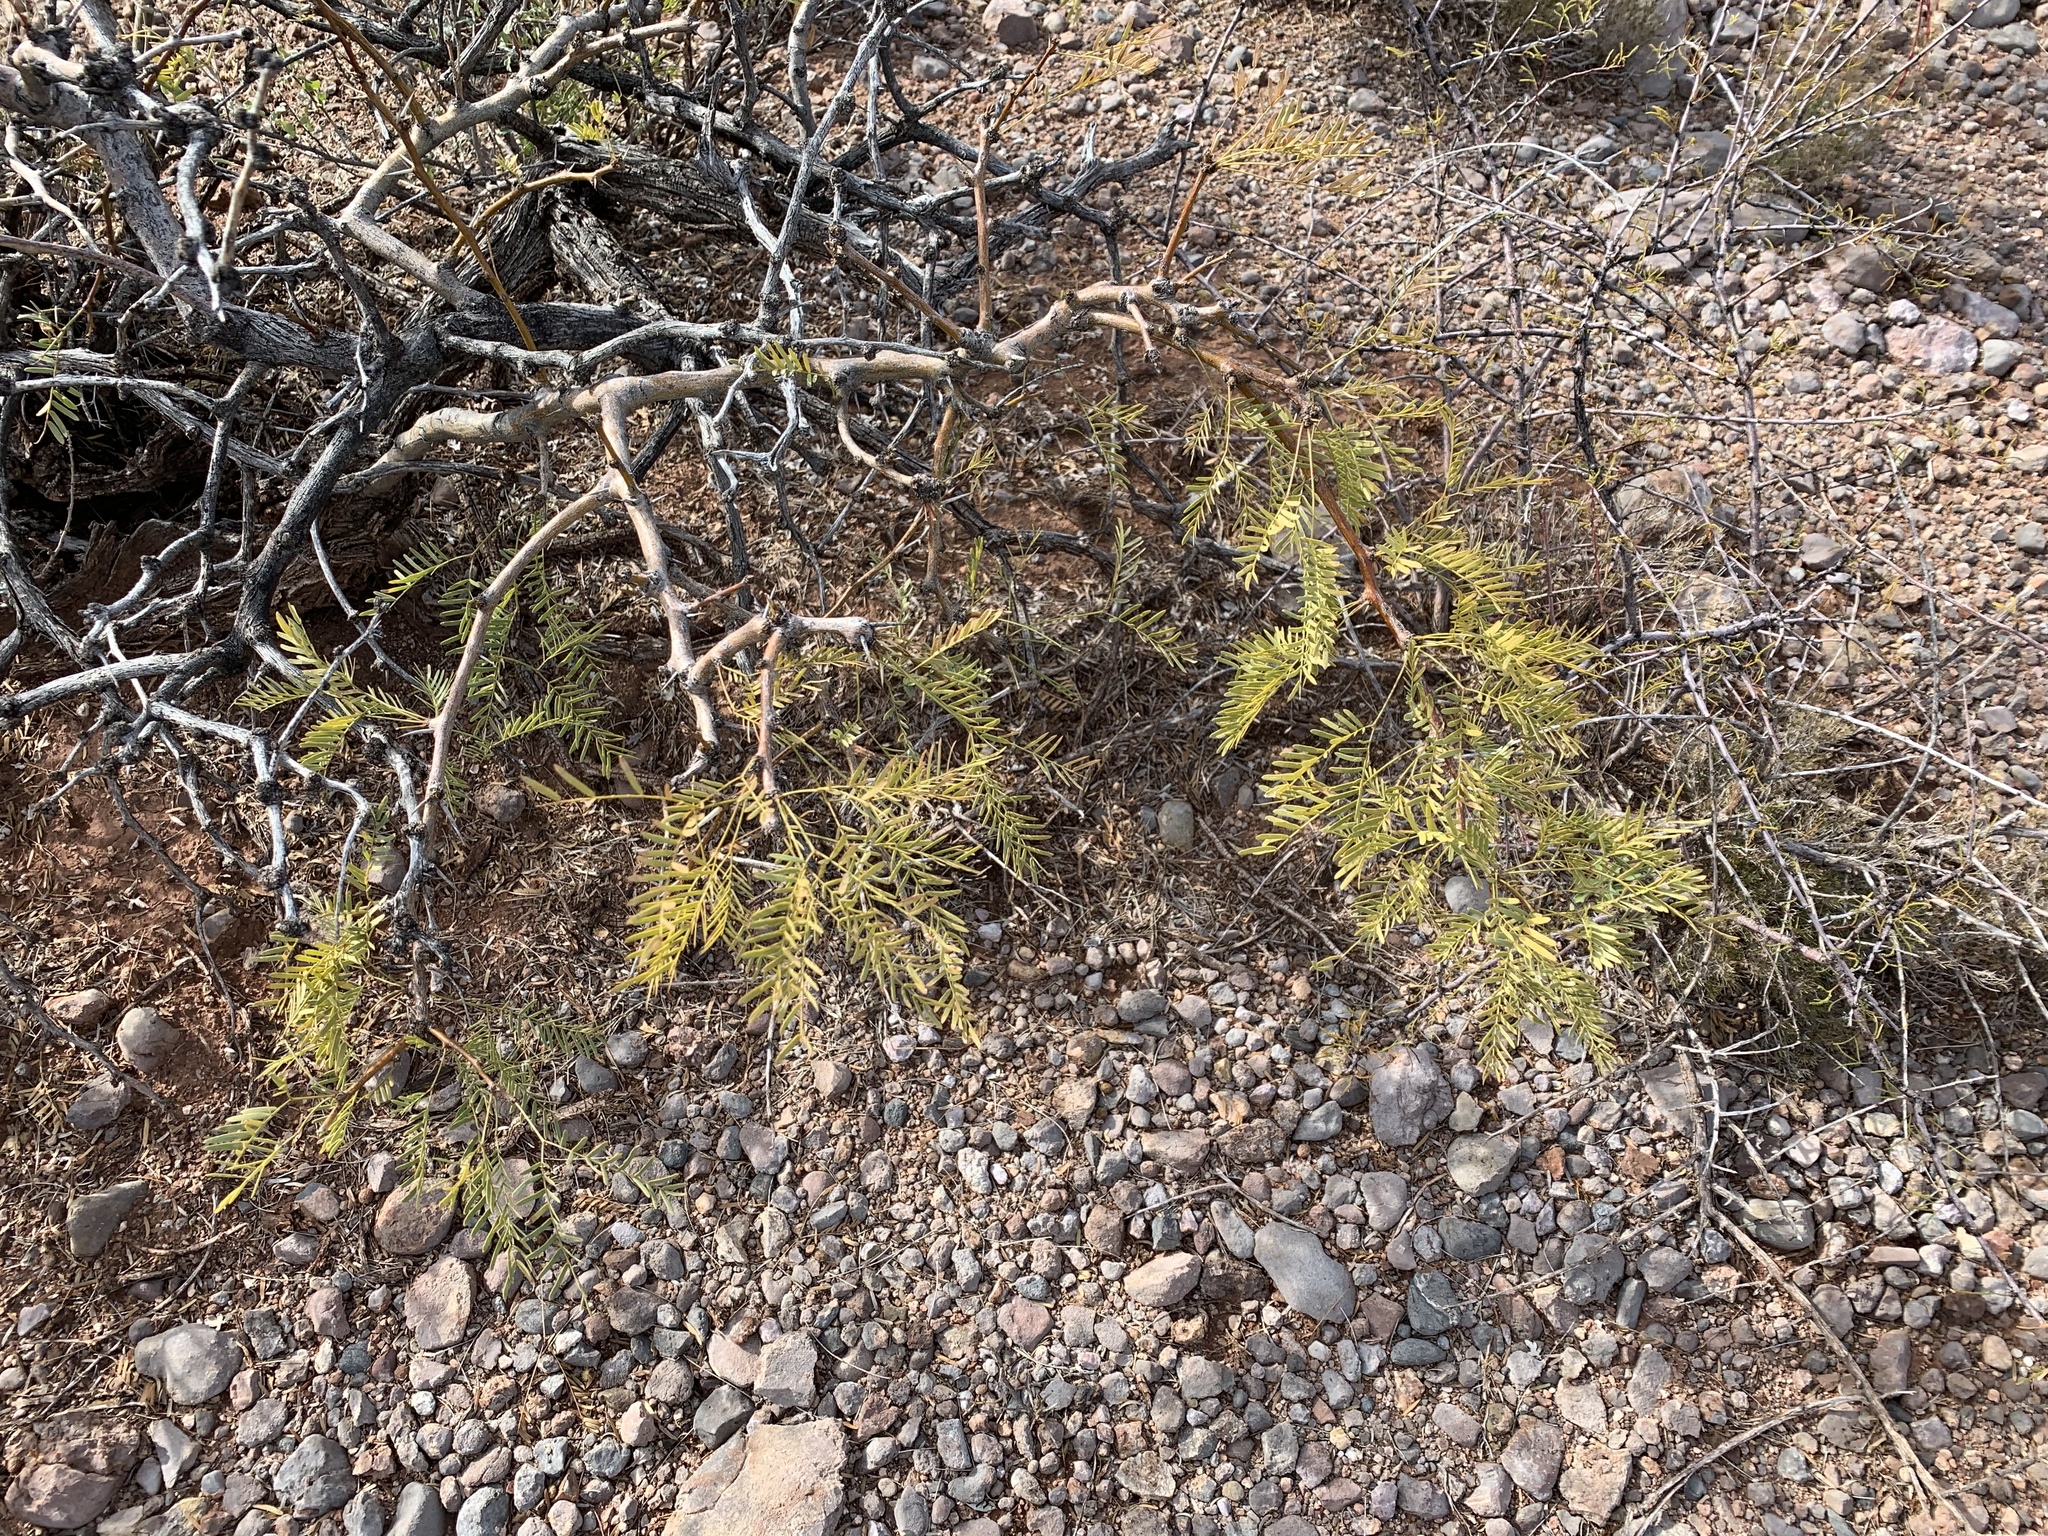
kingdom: Plantae
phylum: Tracheophyta
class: Magnoliopsida
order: Fabales
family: Fabaceae
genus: Prosopis
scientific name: Prosopis glandulosa
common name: Honey mesquite
